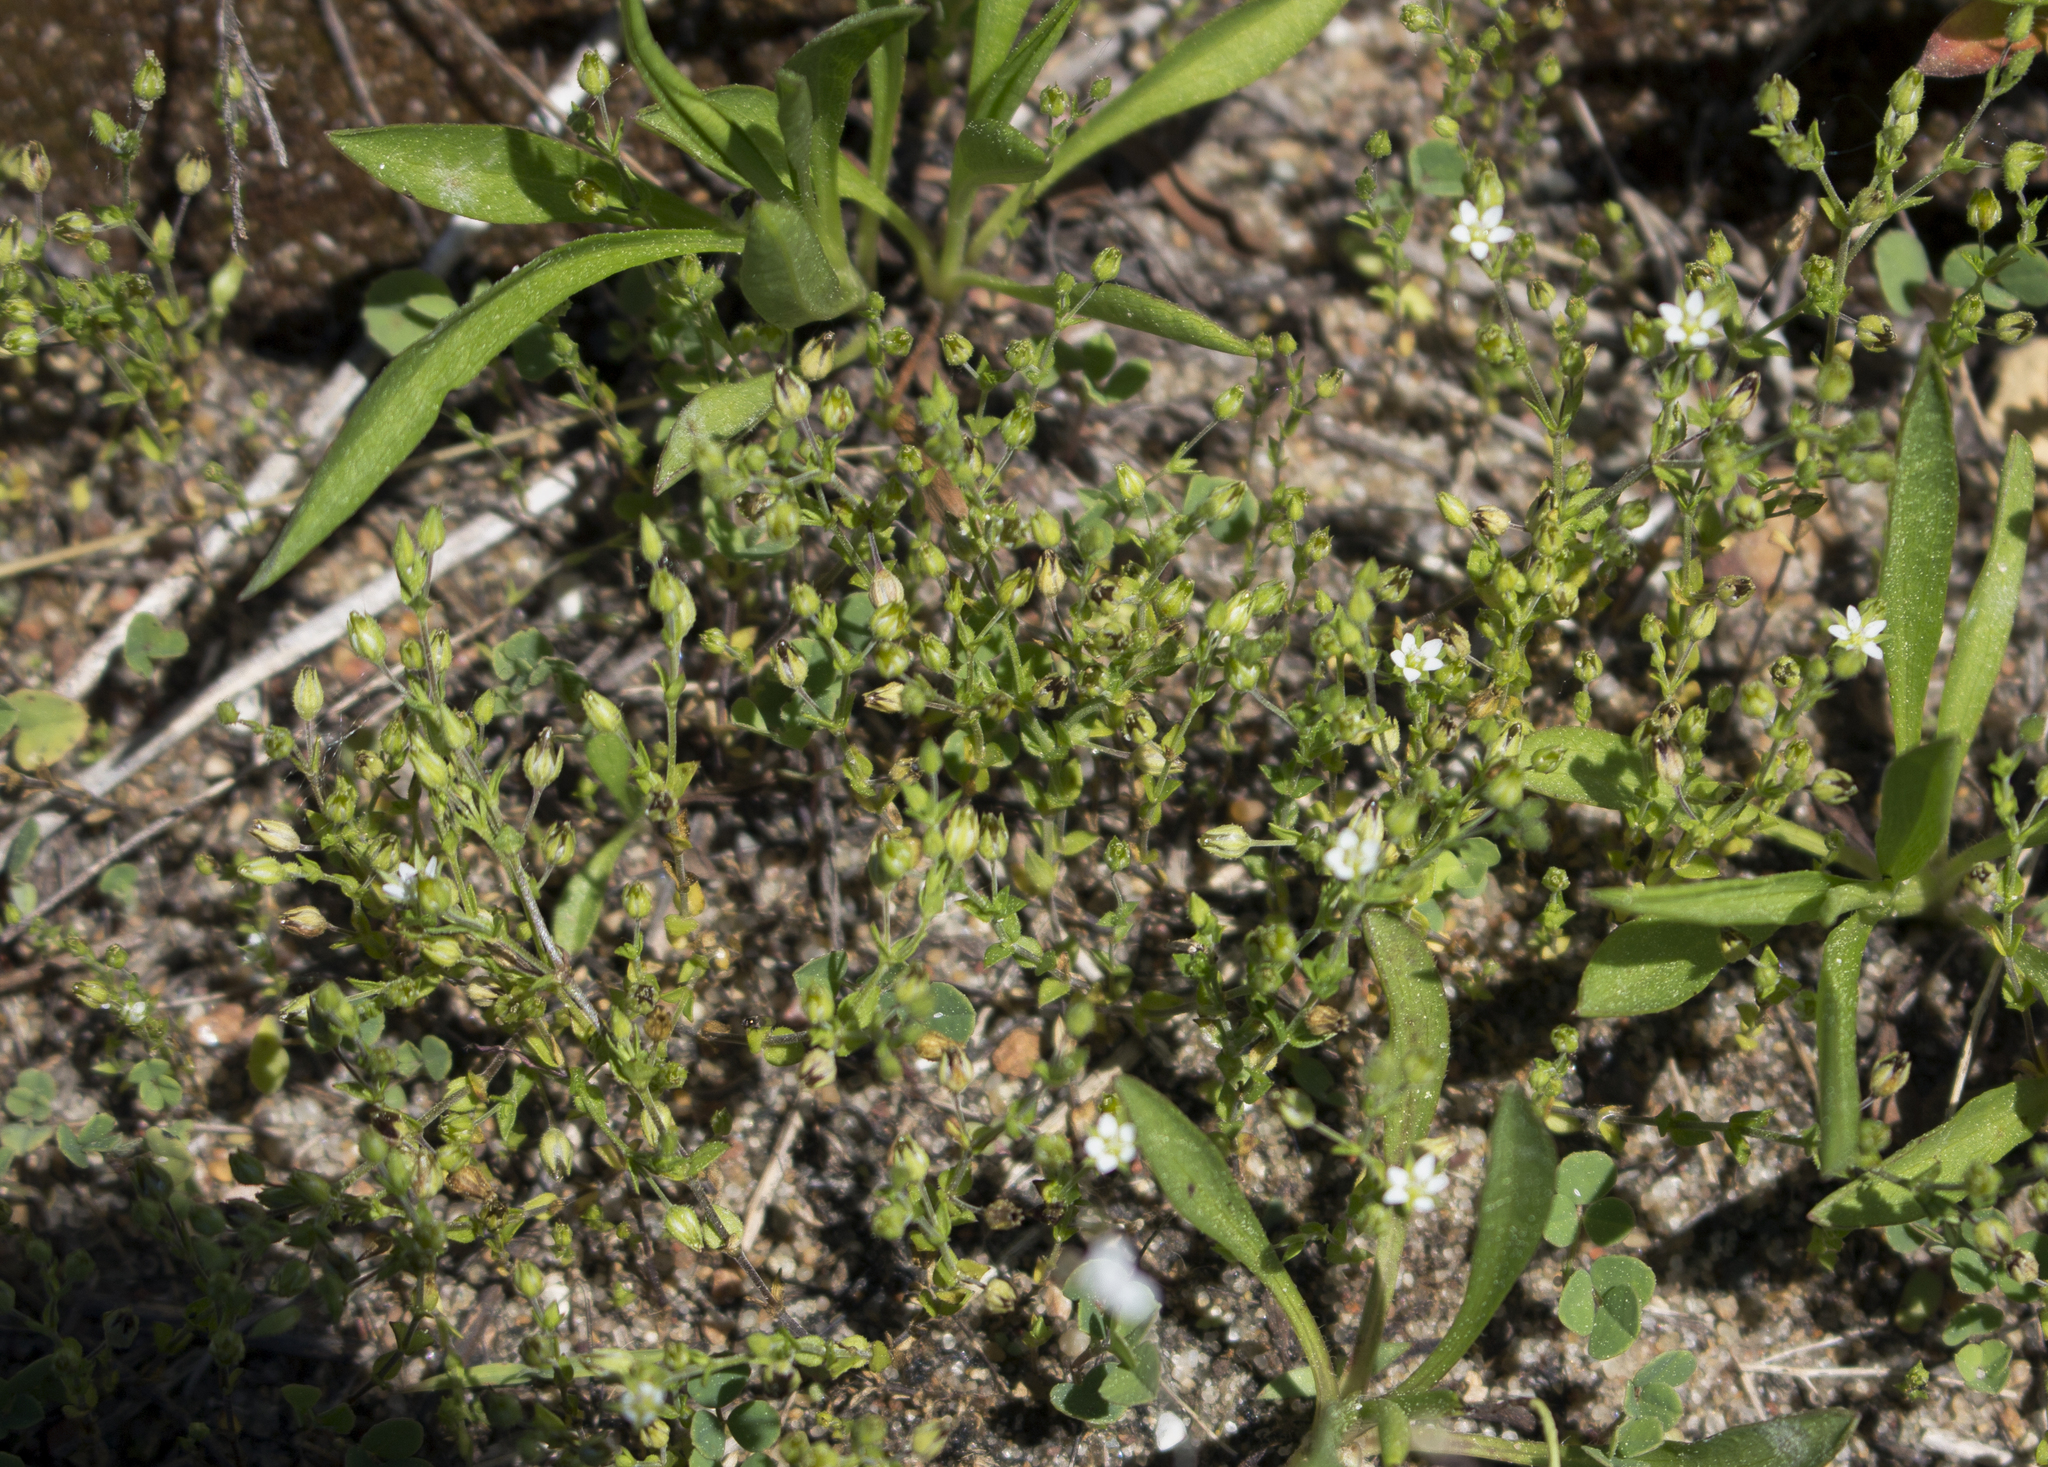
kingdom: Plantae
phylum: Tracheophyta
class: Magnoliopsida
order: Caryophyllales
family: Caryophyllaceae
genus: Arenaria
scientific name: Arenaria serpyllifolia
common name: Thyme-leaved sandwort
